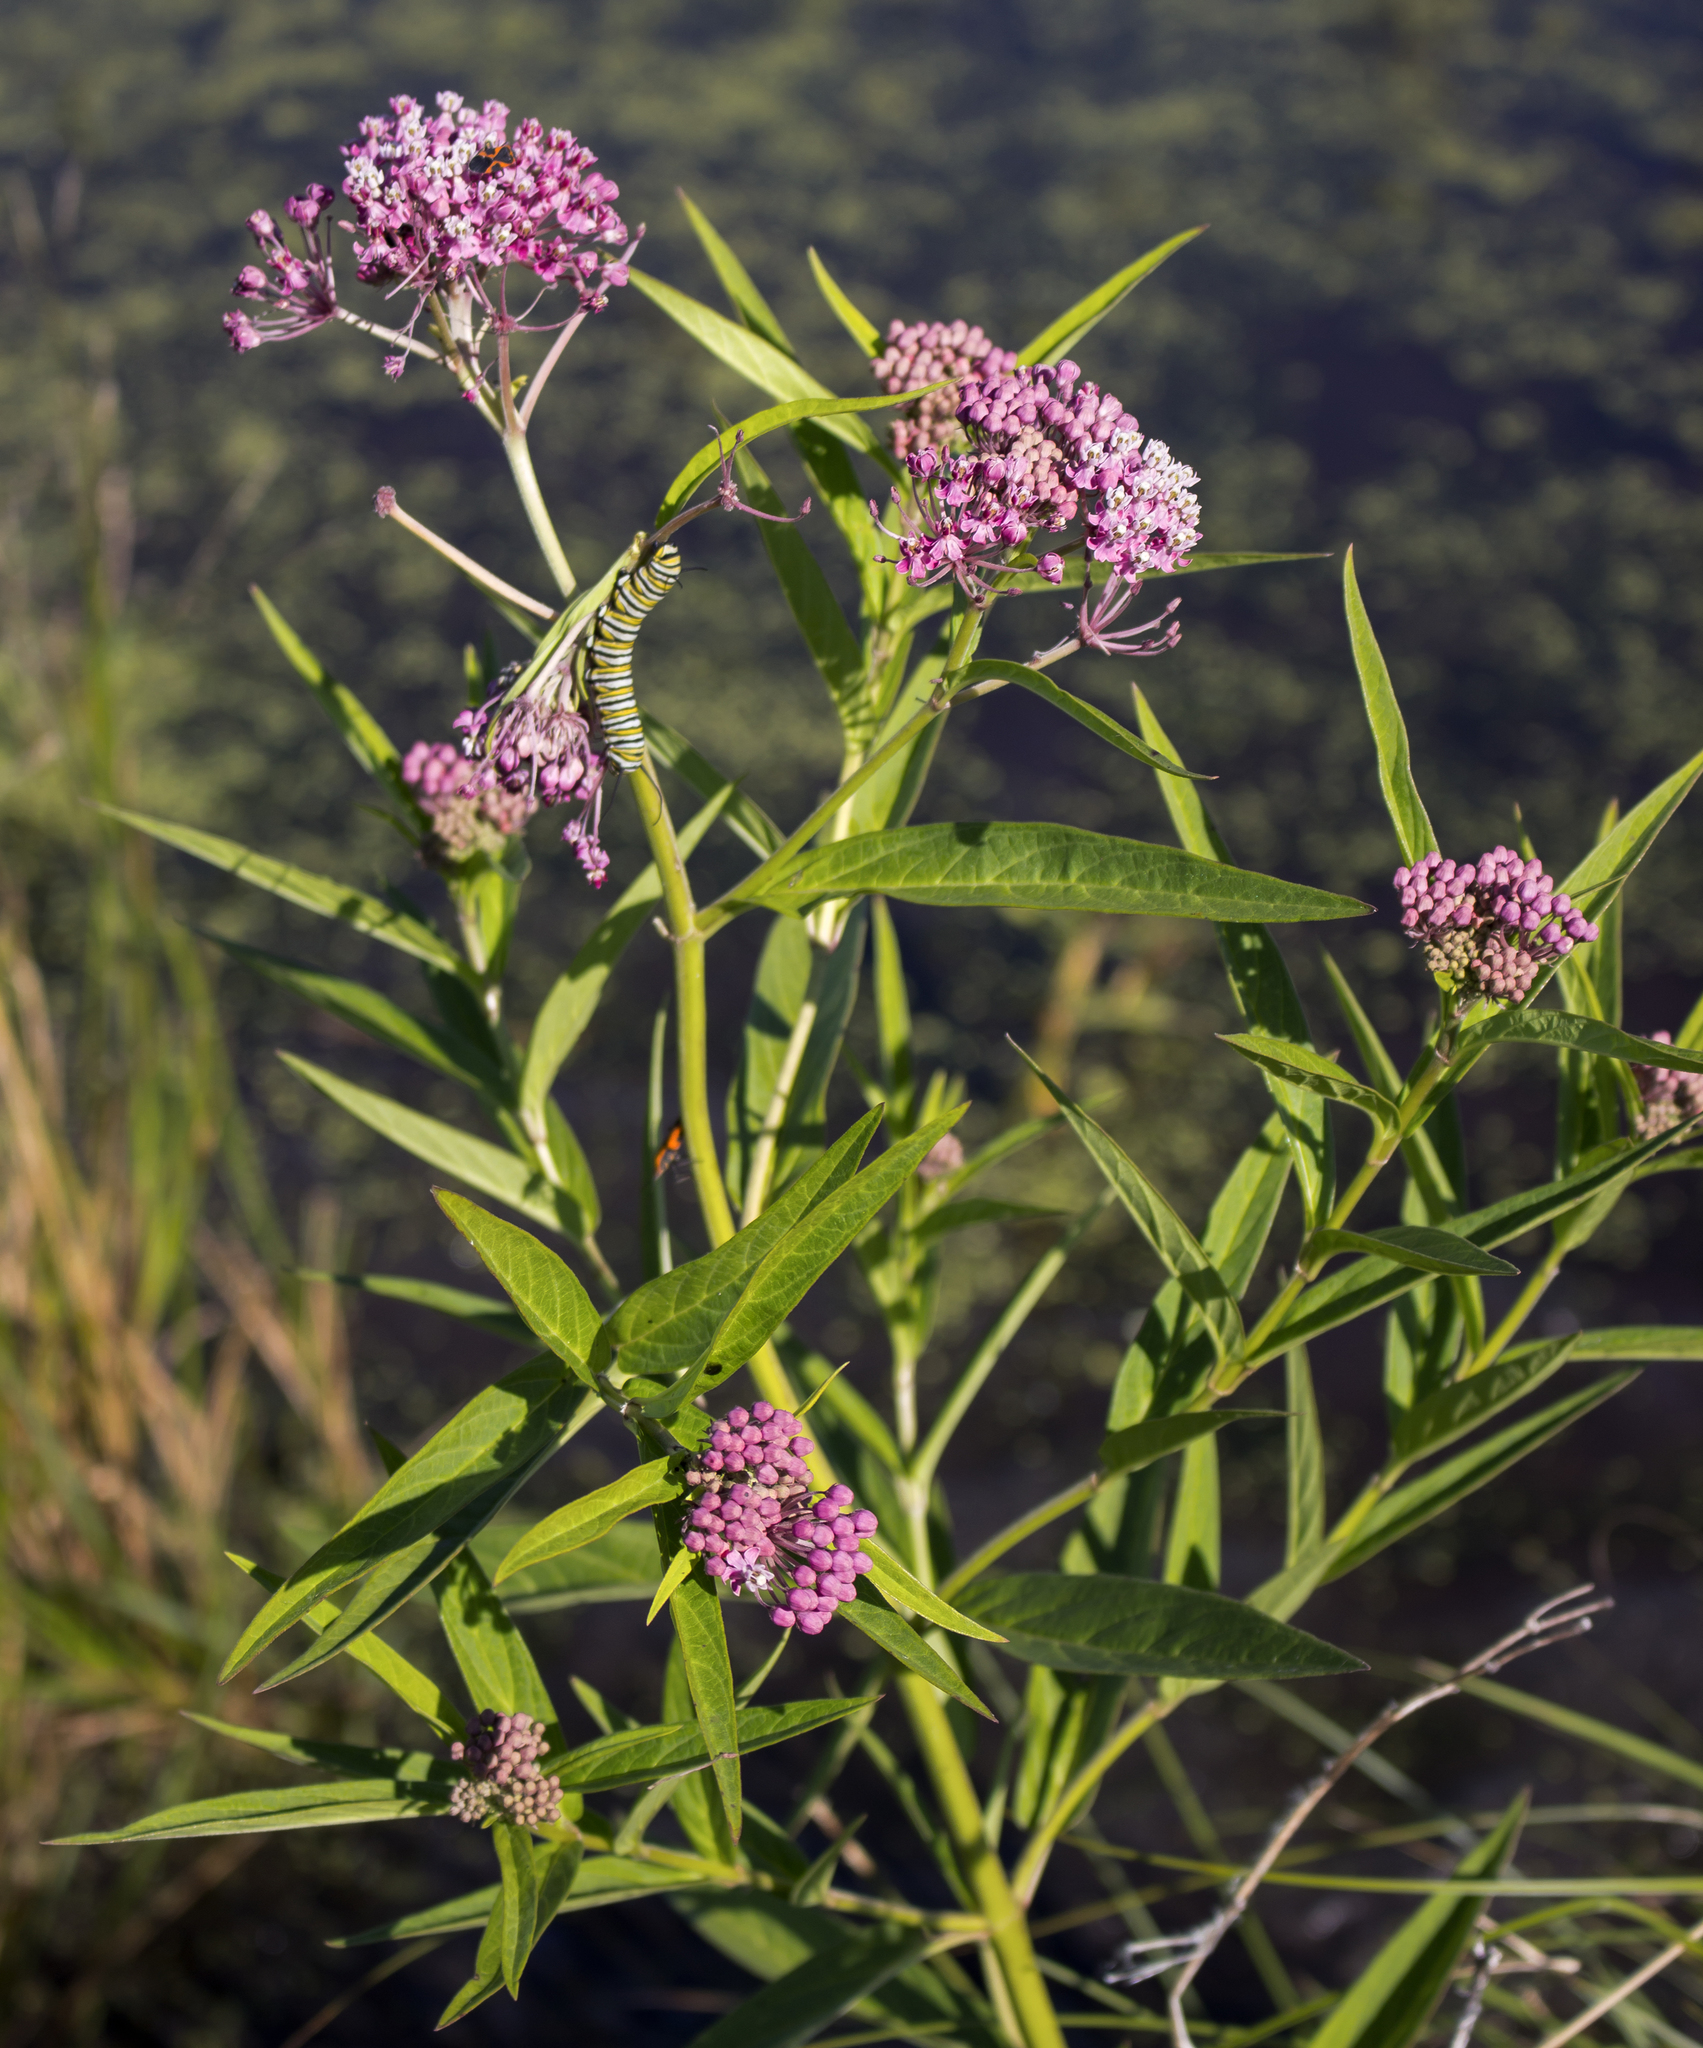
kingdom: Plantae
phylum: Tracheophyta
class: Magnoliopsida
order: Gentianales
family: Apocynaceae
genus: Asclepias
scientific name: Asclepias incarnata
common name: Swamp milkweed
